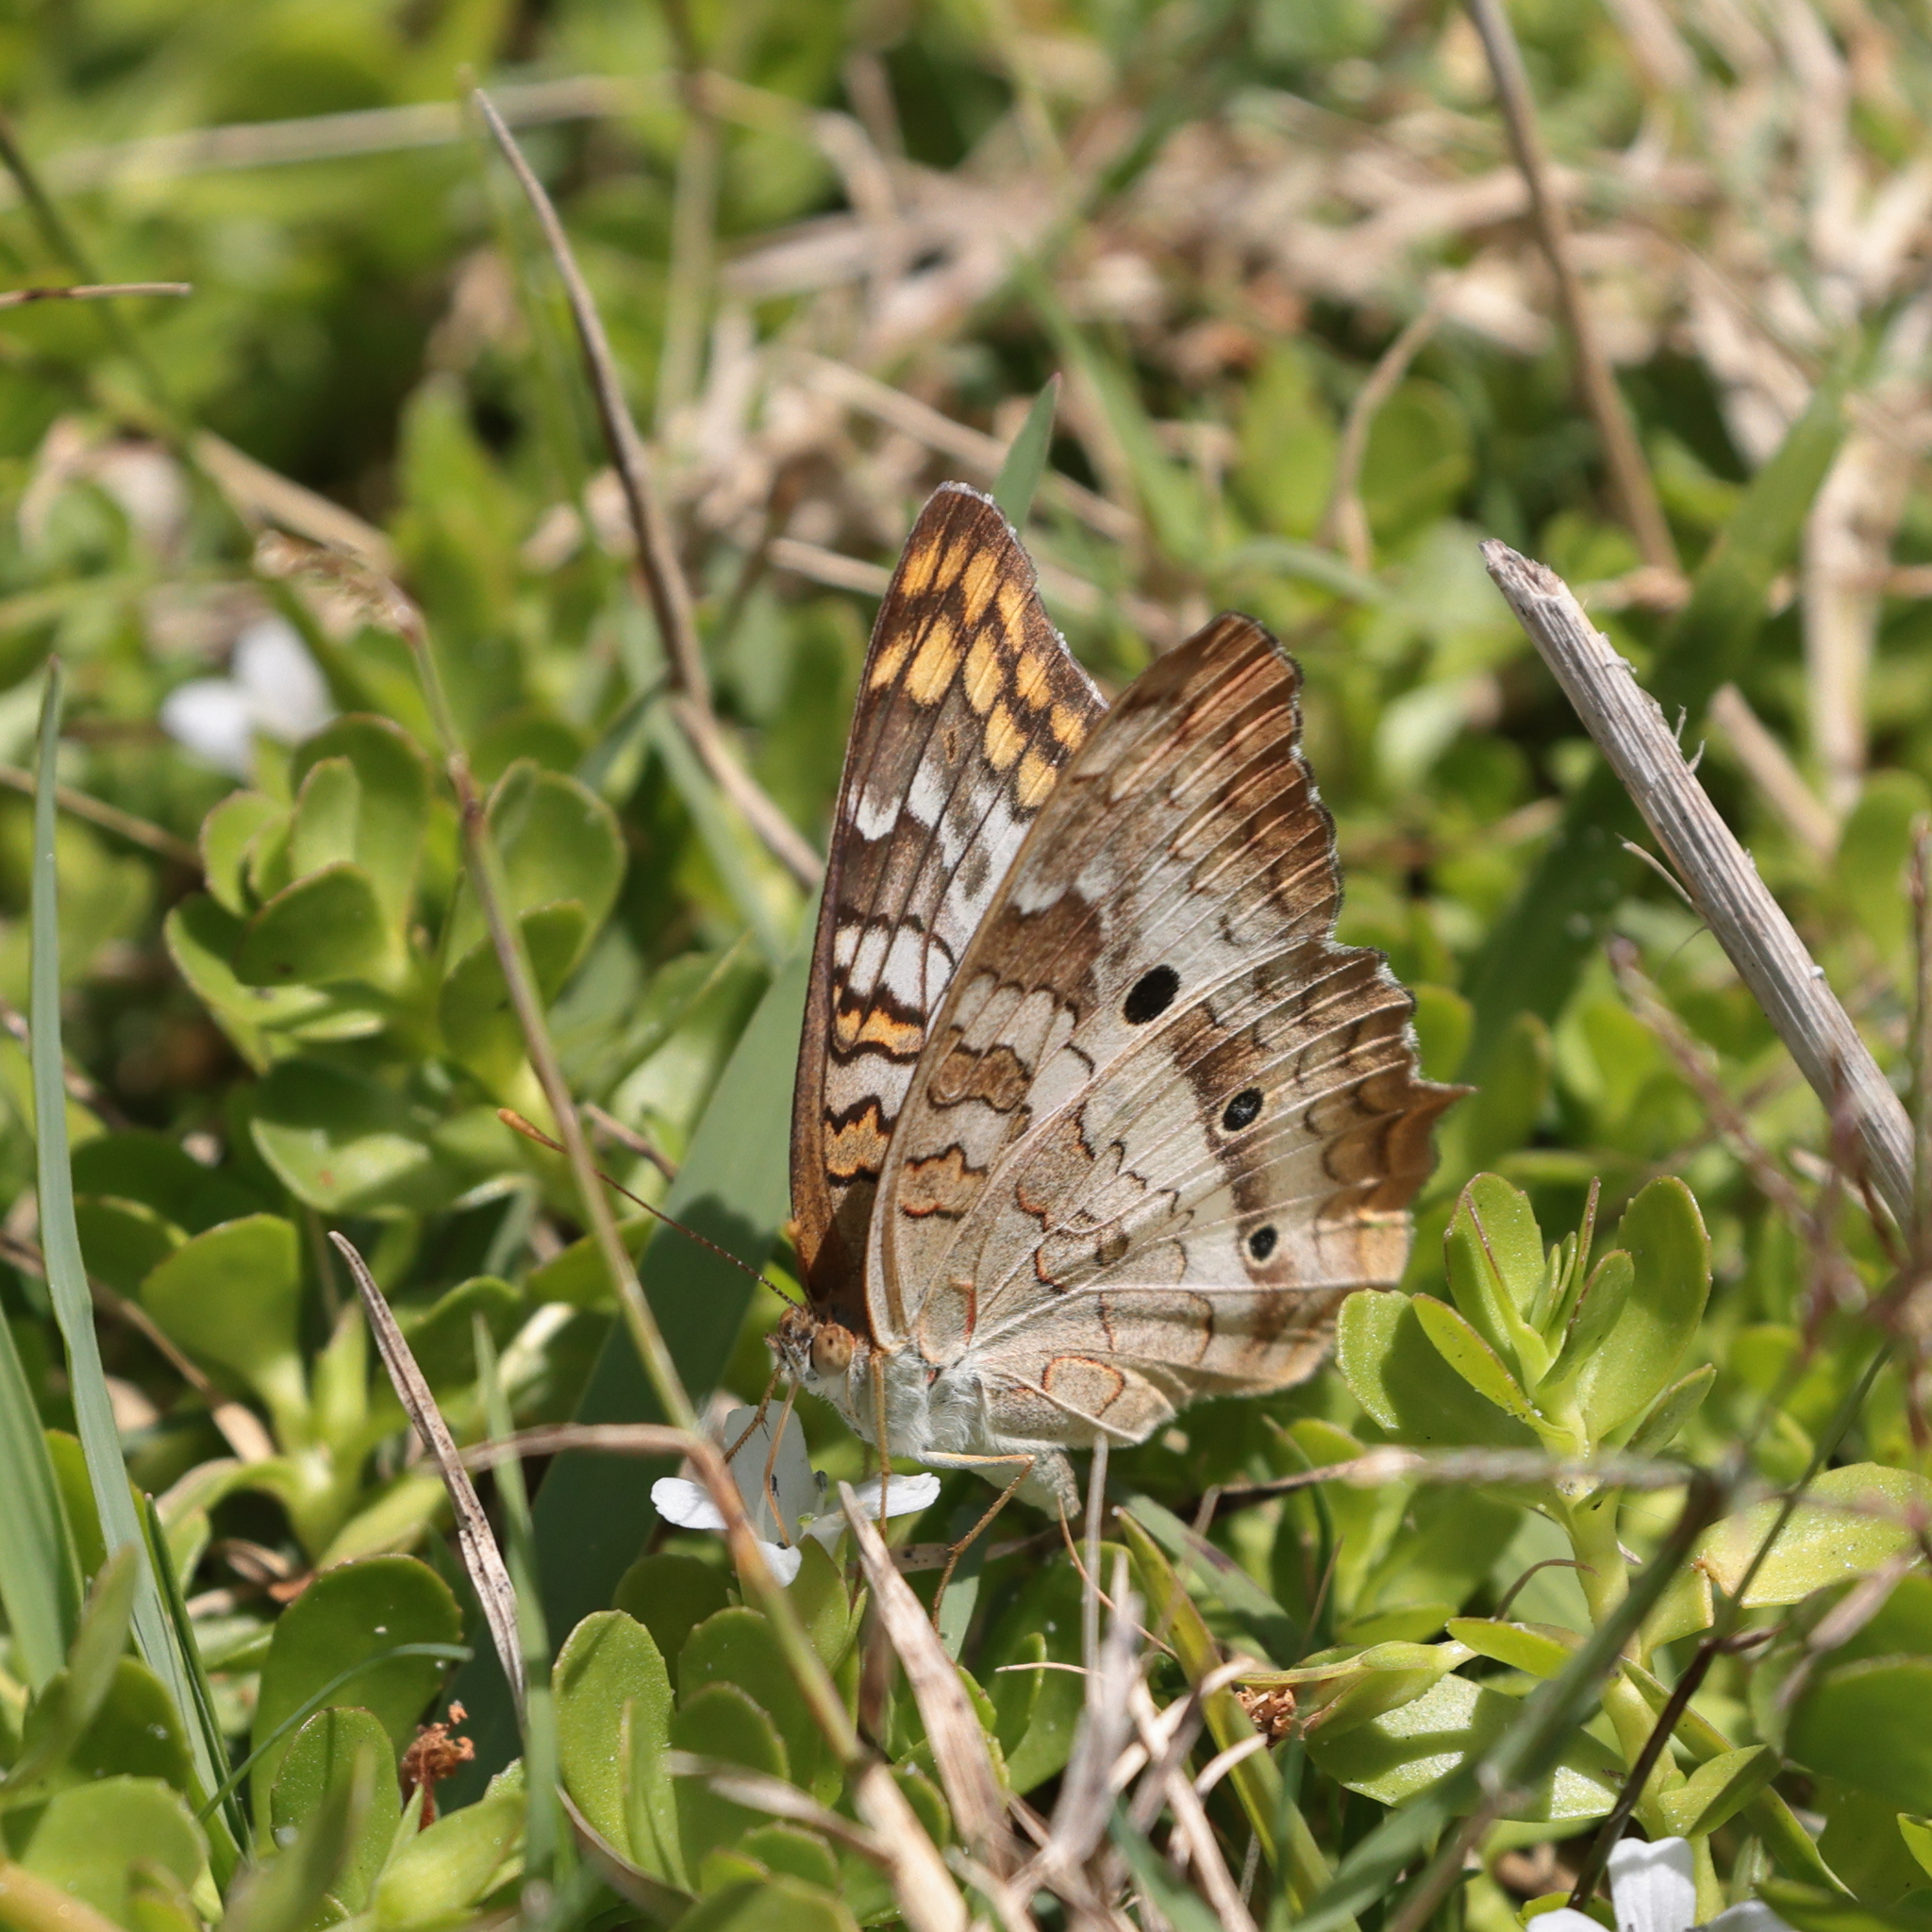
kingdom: Animalia
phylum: Arthropoda
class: Insecta
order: Lepidoptera
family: Nymphalidae
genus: Anartia
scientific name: Anartia jatrophae
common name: White peacock
